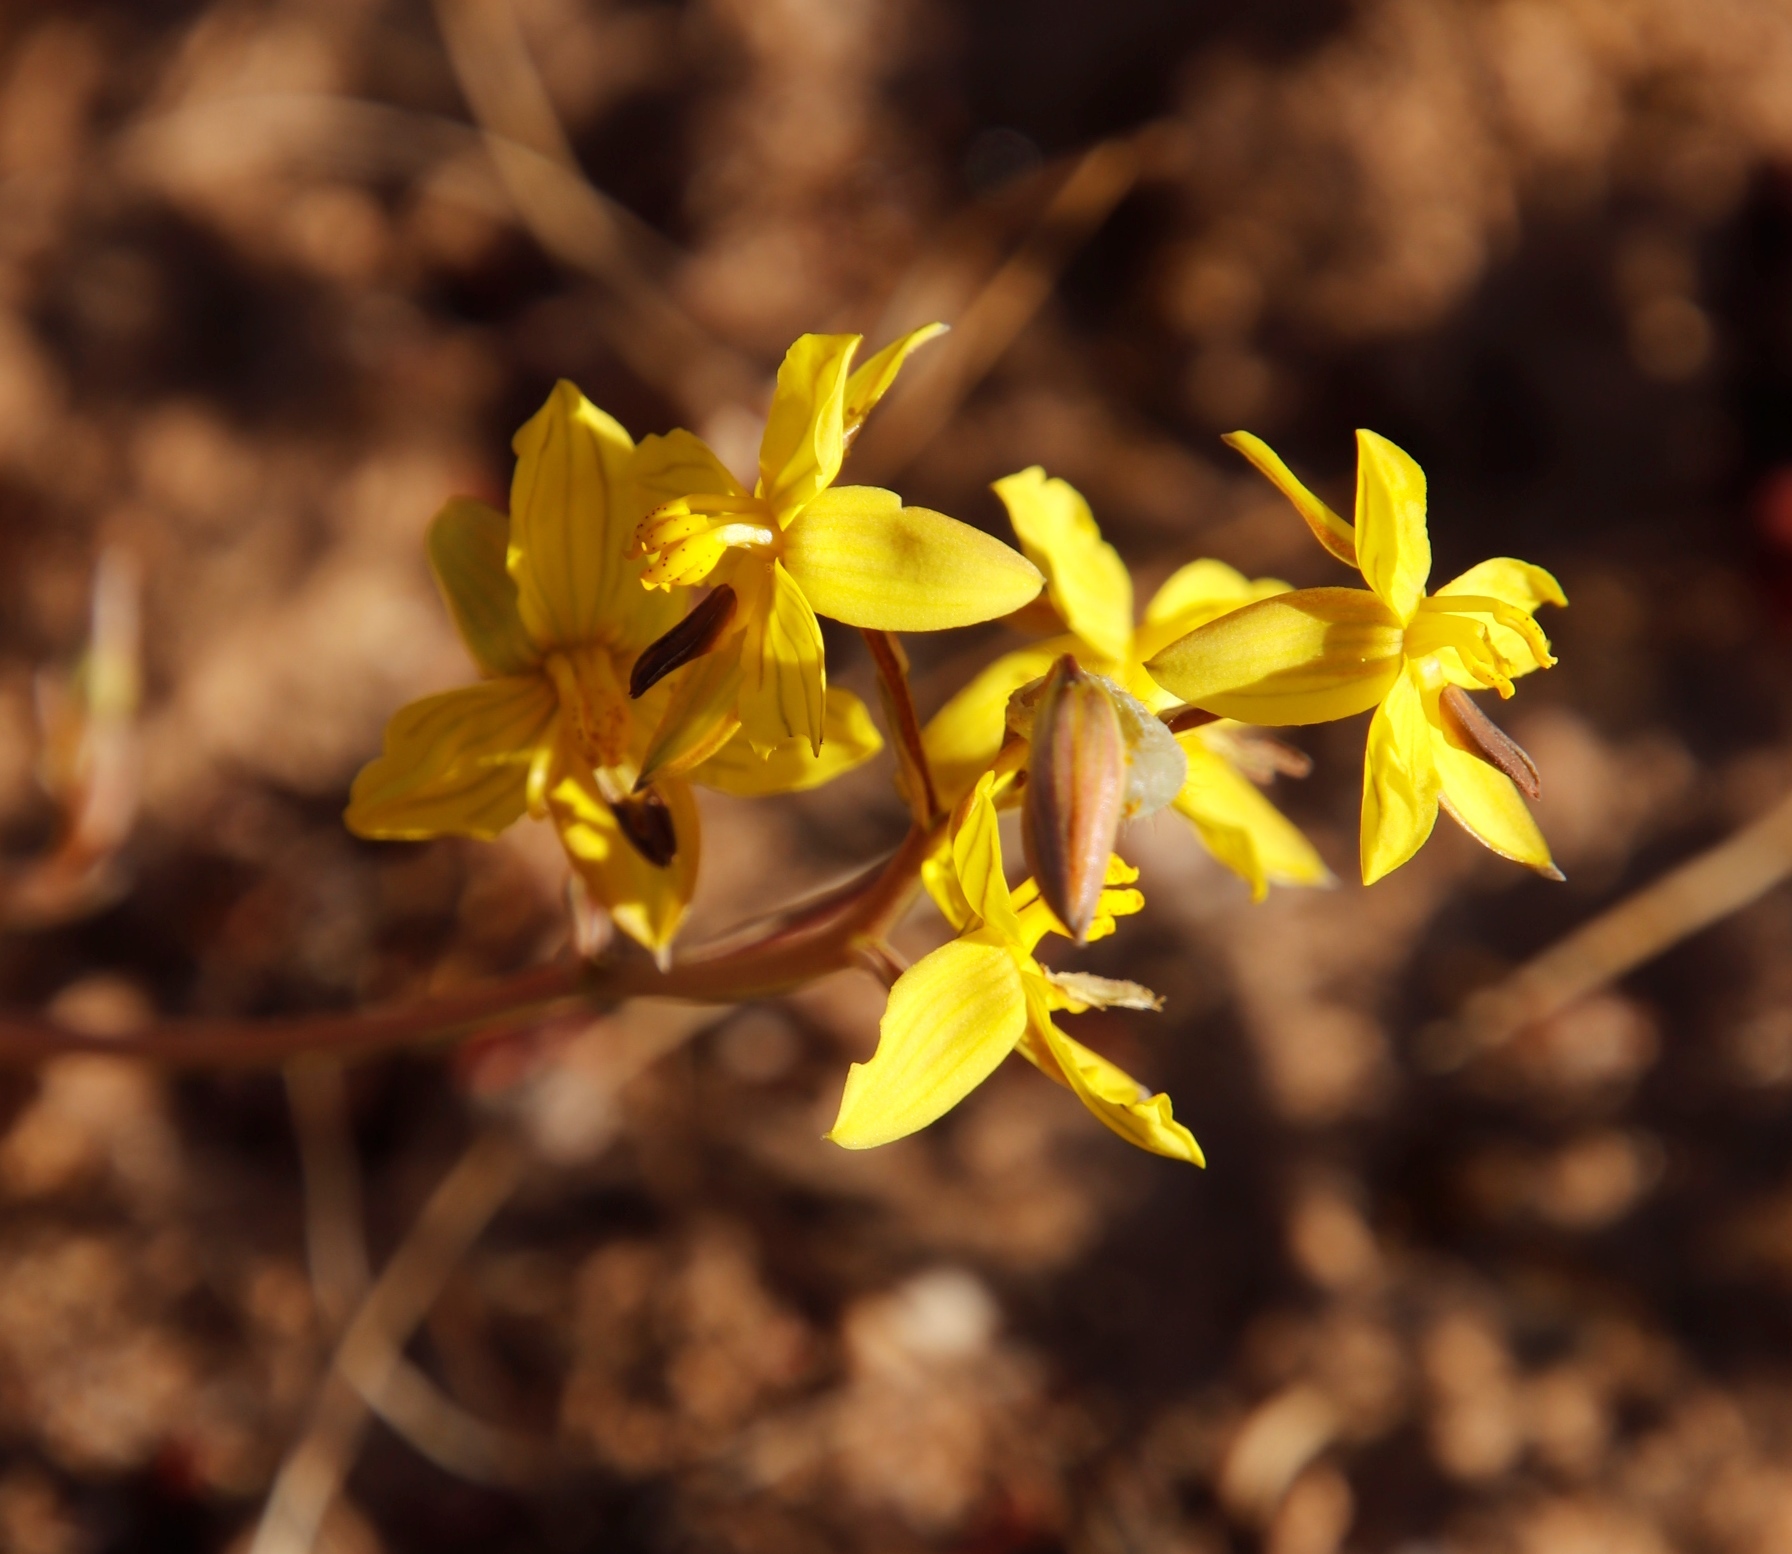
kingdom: Plantae
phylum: Tracheophyta
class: Liliopsida
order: Asparagales
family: Tecophilaeaceae
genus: Cyanella
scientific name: Cyanella lutea
